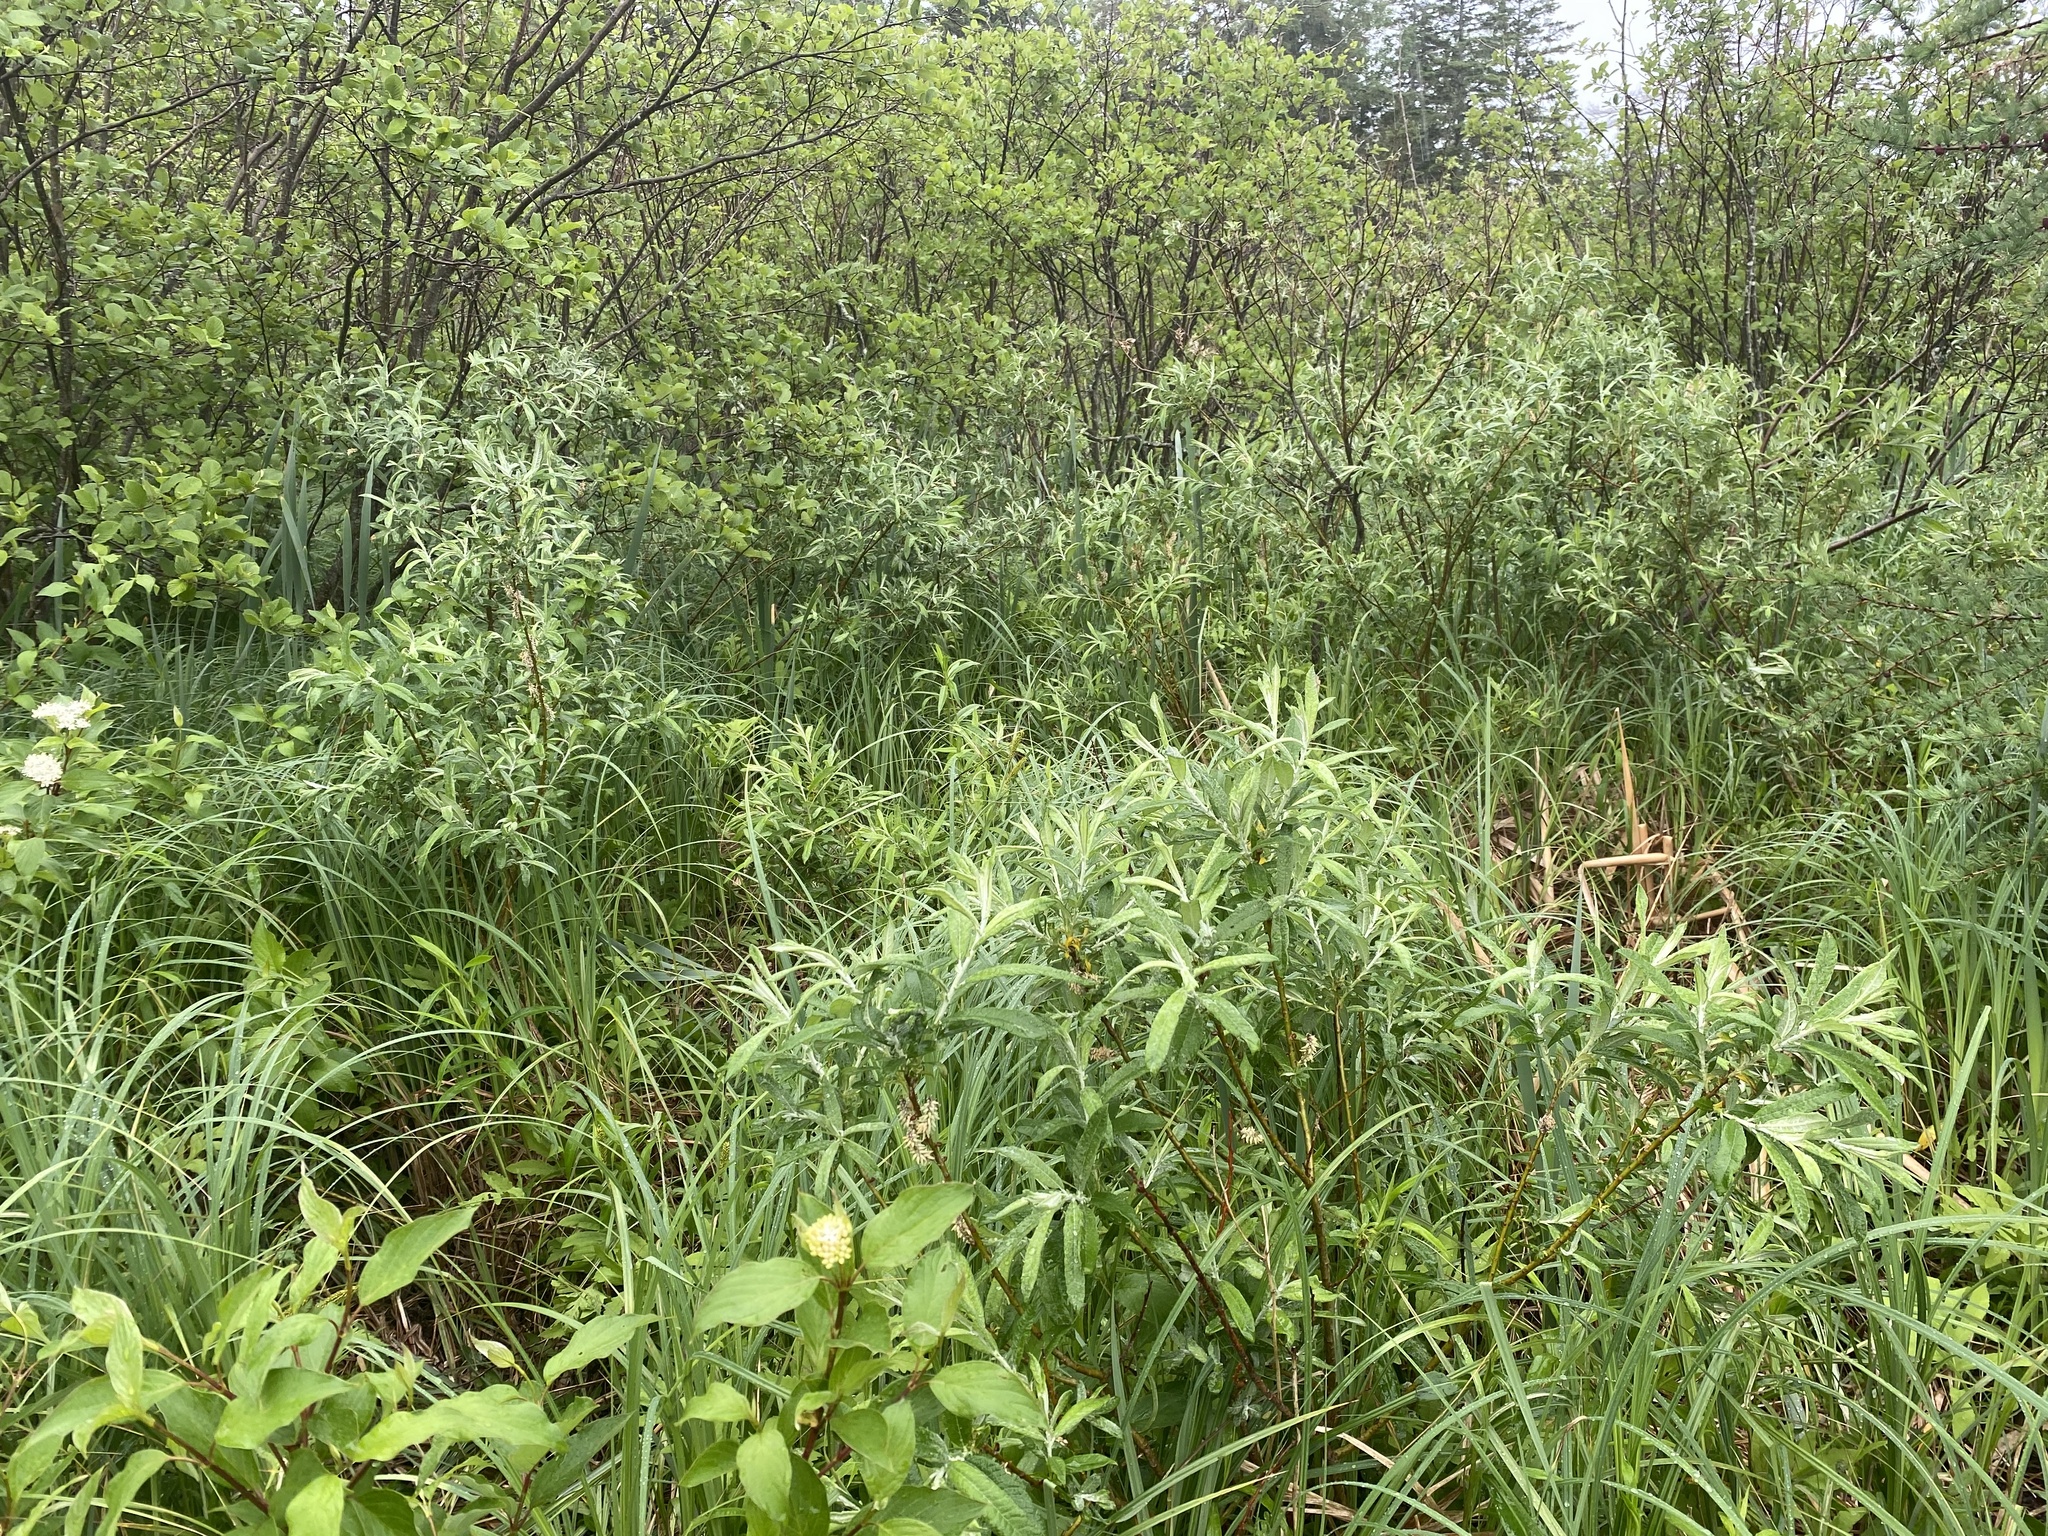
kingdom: Plantae
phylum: Tracheophyta
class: Magnoliopsida
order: Malpighiales
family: Salicaceae
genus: Salix
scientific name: Salix candida
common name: Hoary willow
